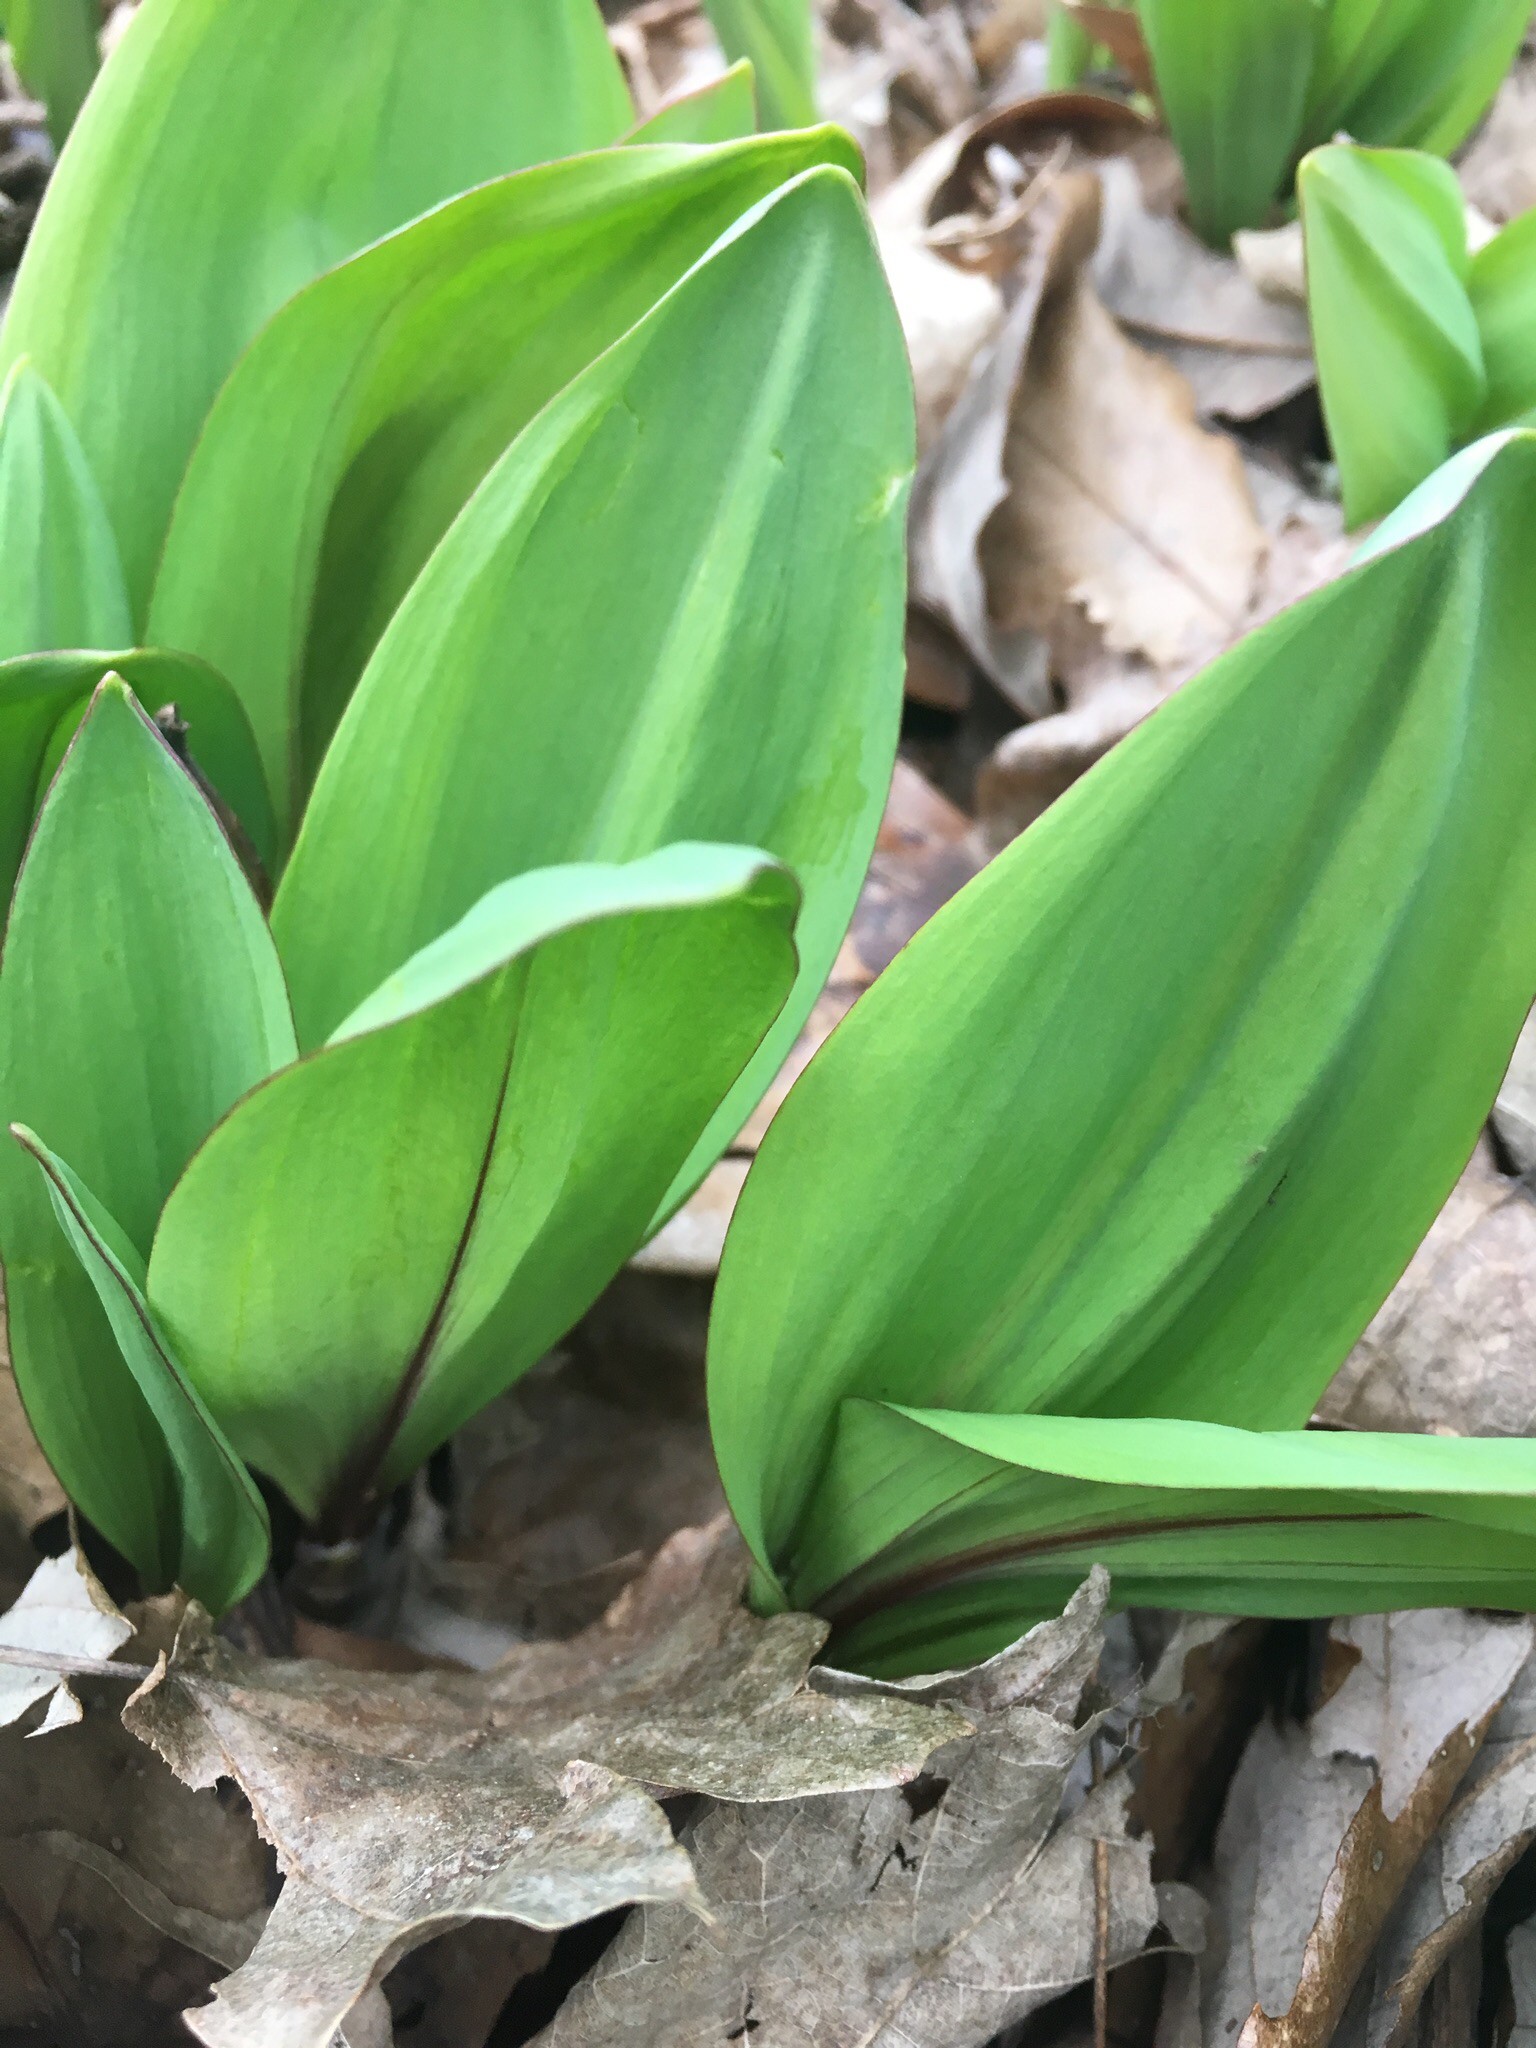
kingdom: Plantae
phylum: Tracheophyta
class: Liliopsida
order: Asparagales
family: Amaryllidaceae
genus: Allium
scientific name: Allium tricoccum
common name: Ramp
